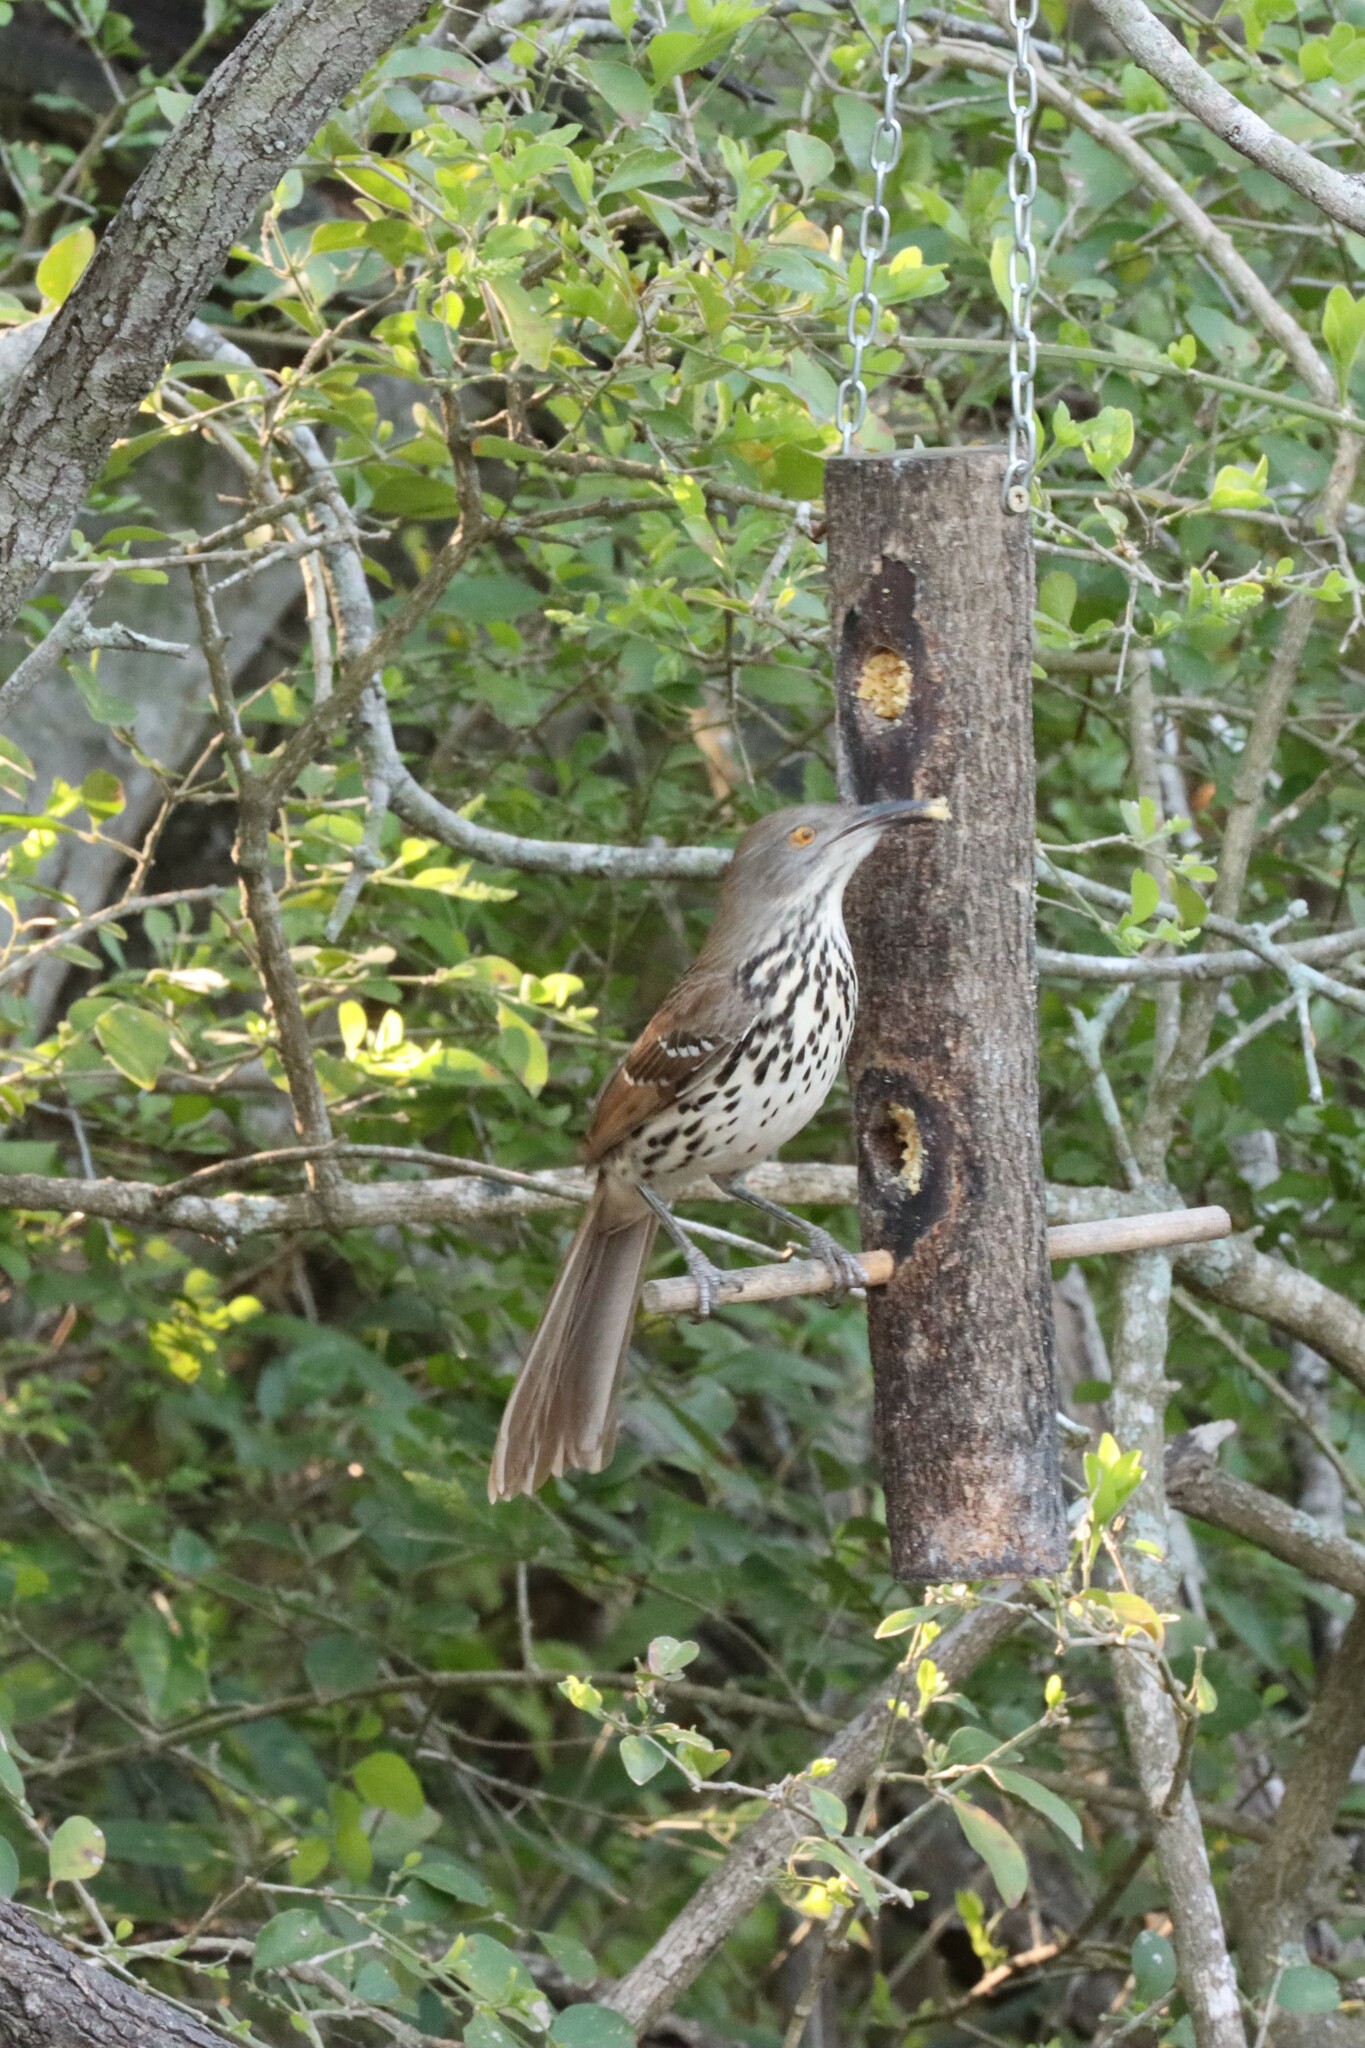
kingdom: Animalia
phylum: Chordata
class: Aves
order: Passeriformes
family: Mimidae
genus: Toxostoma
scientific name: Toxostoma longirostre
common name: Long-billed thrasher
